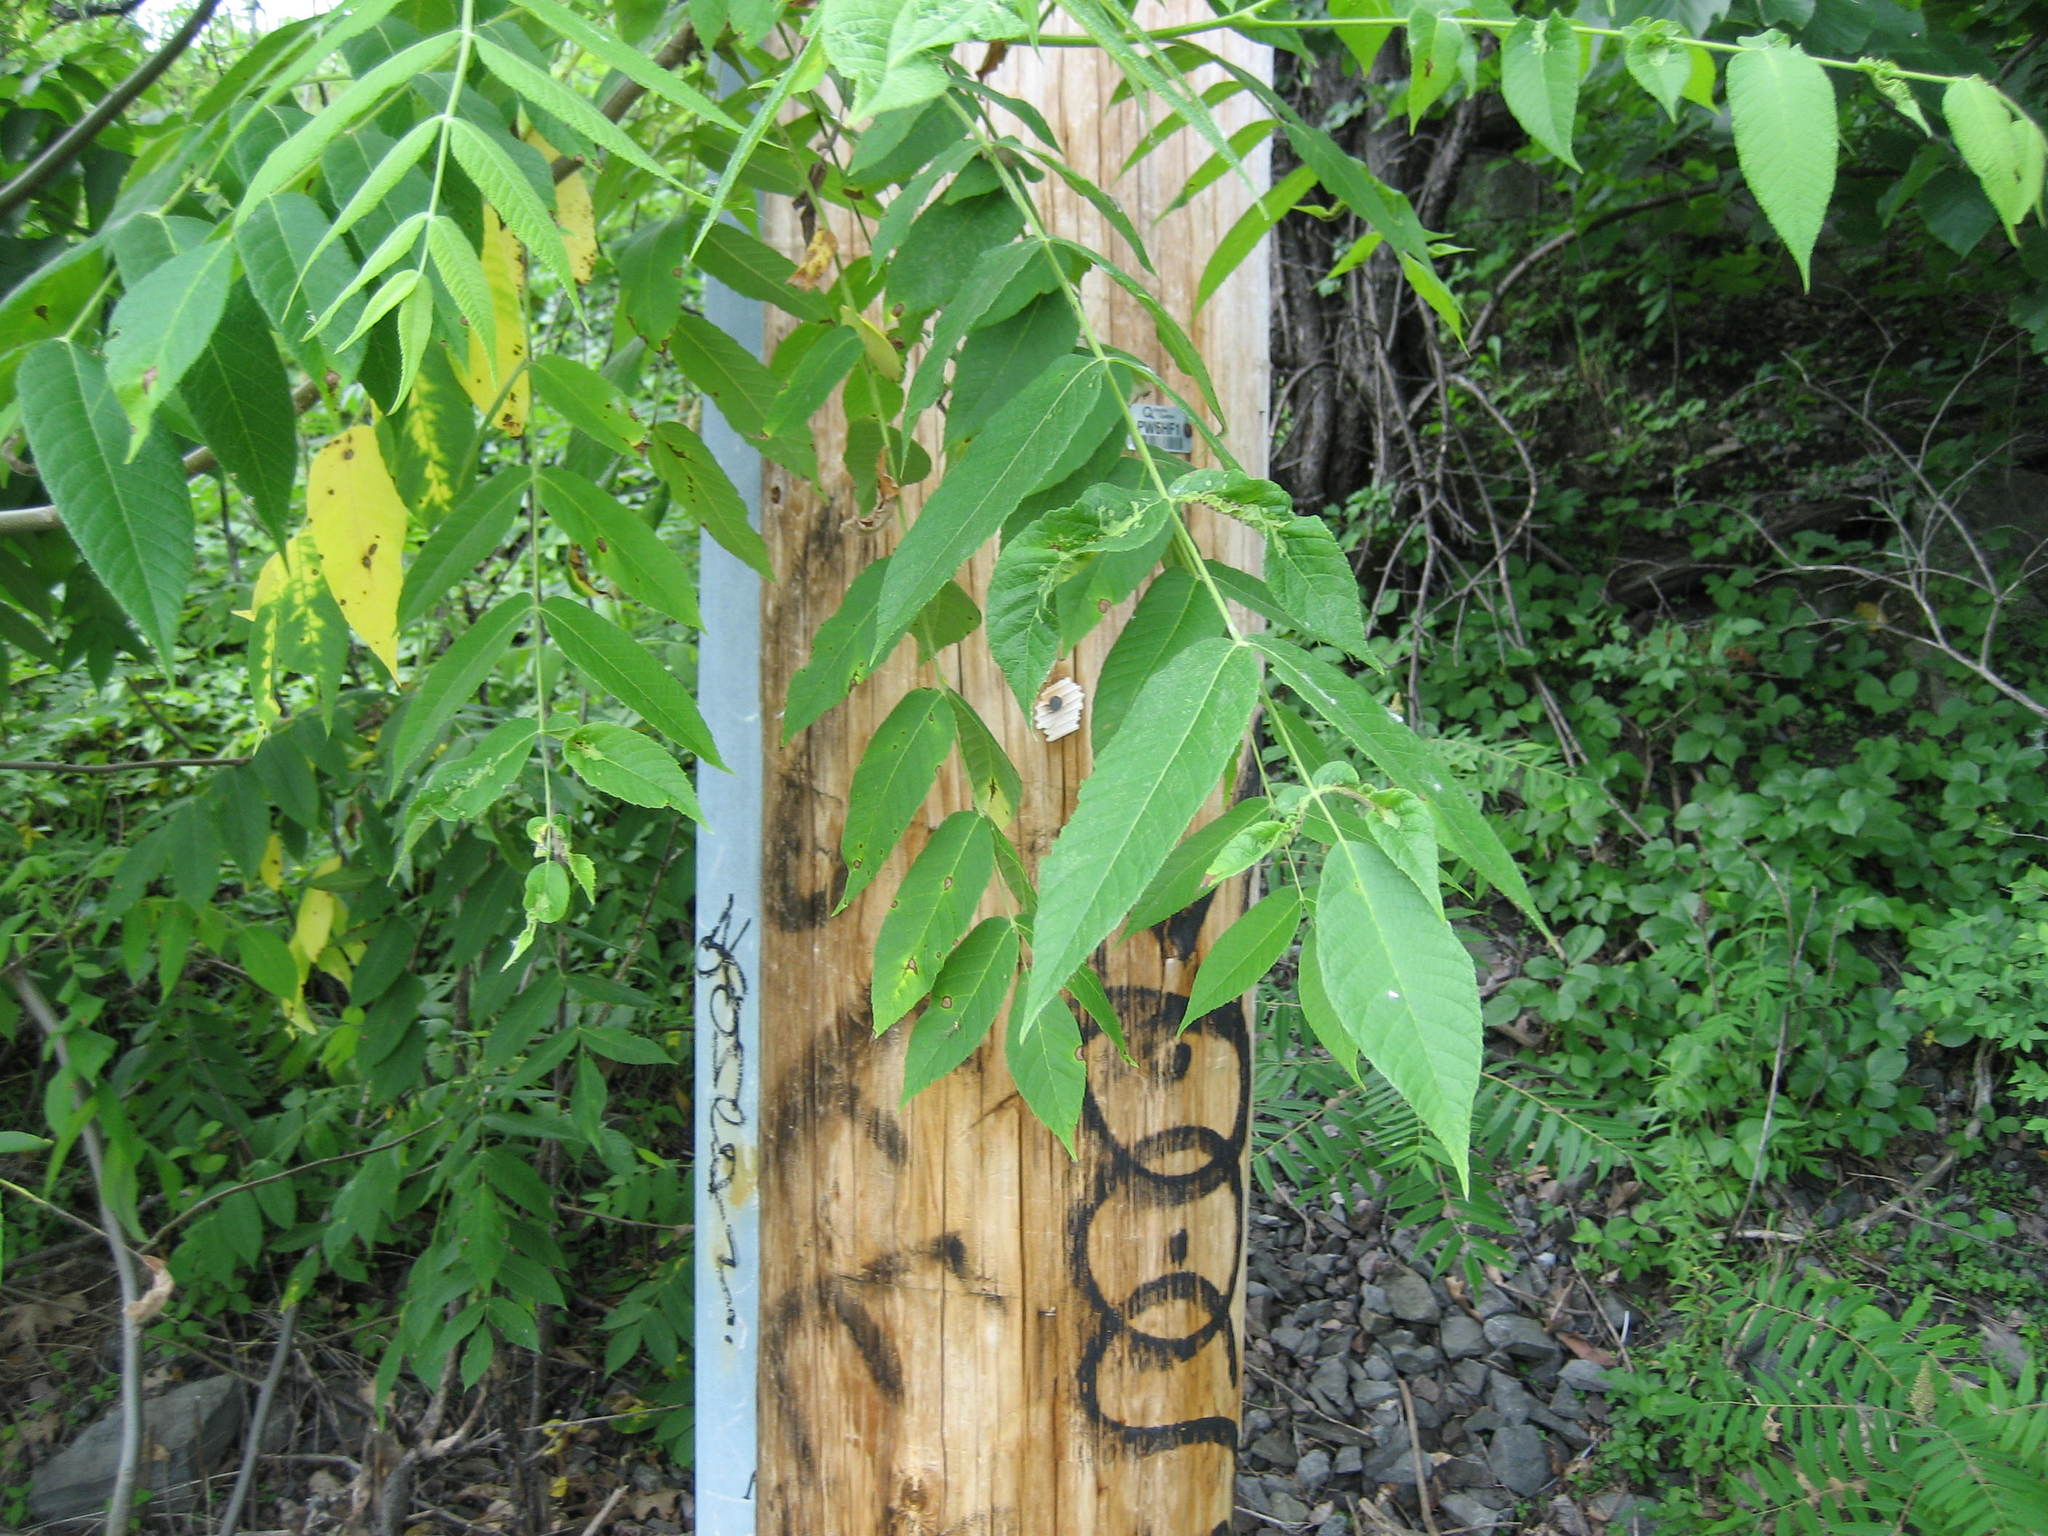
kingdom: Plantae
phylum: Tracheophyta
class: Magnoliopsida
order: Fagales
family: Juglandaceae
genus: Juglans
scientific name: Juglans cinerea
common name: Butternut
